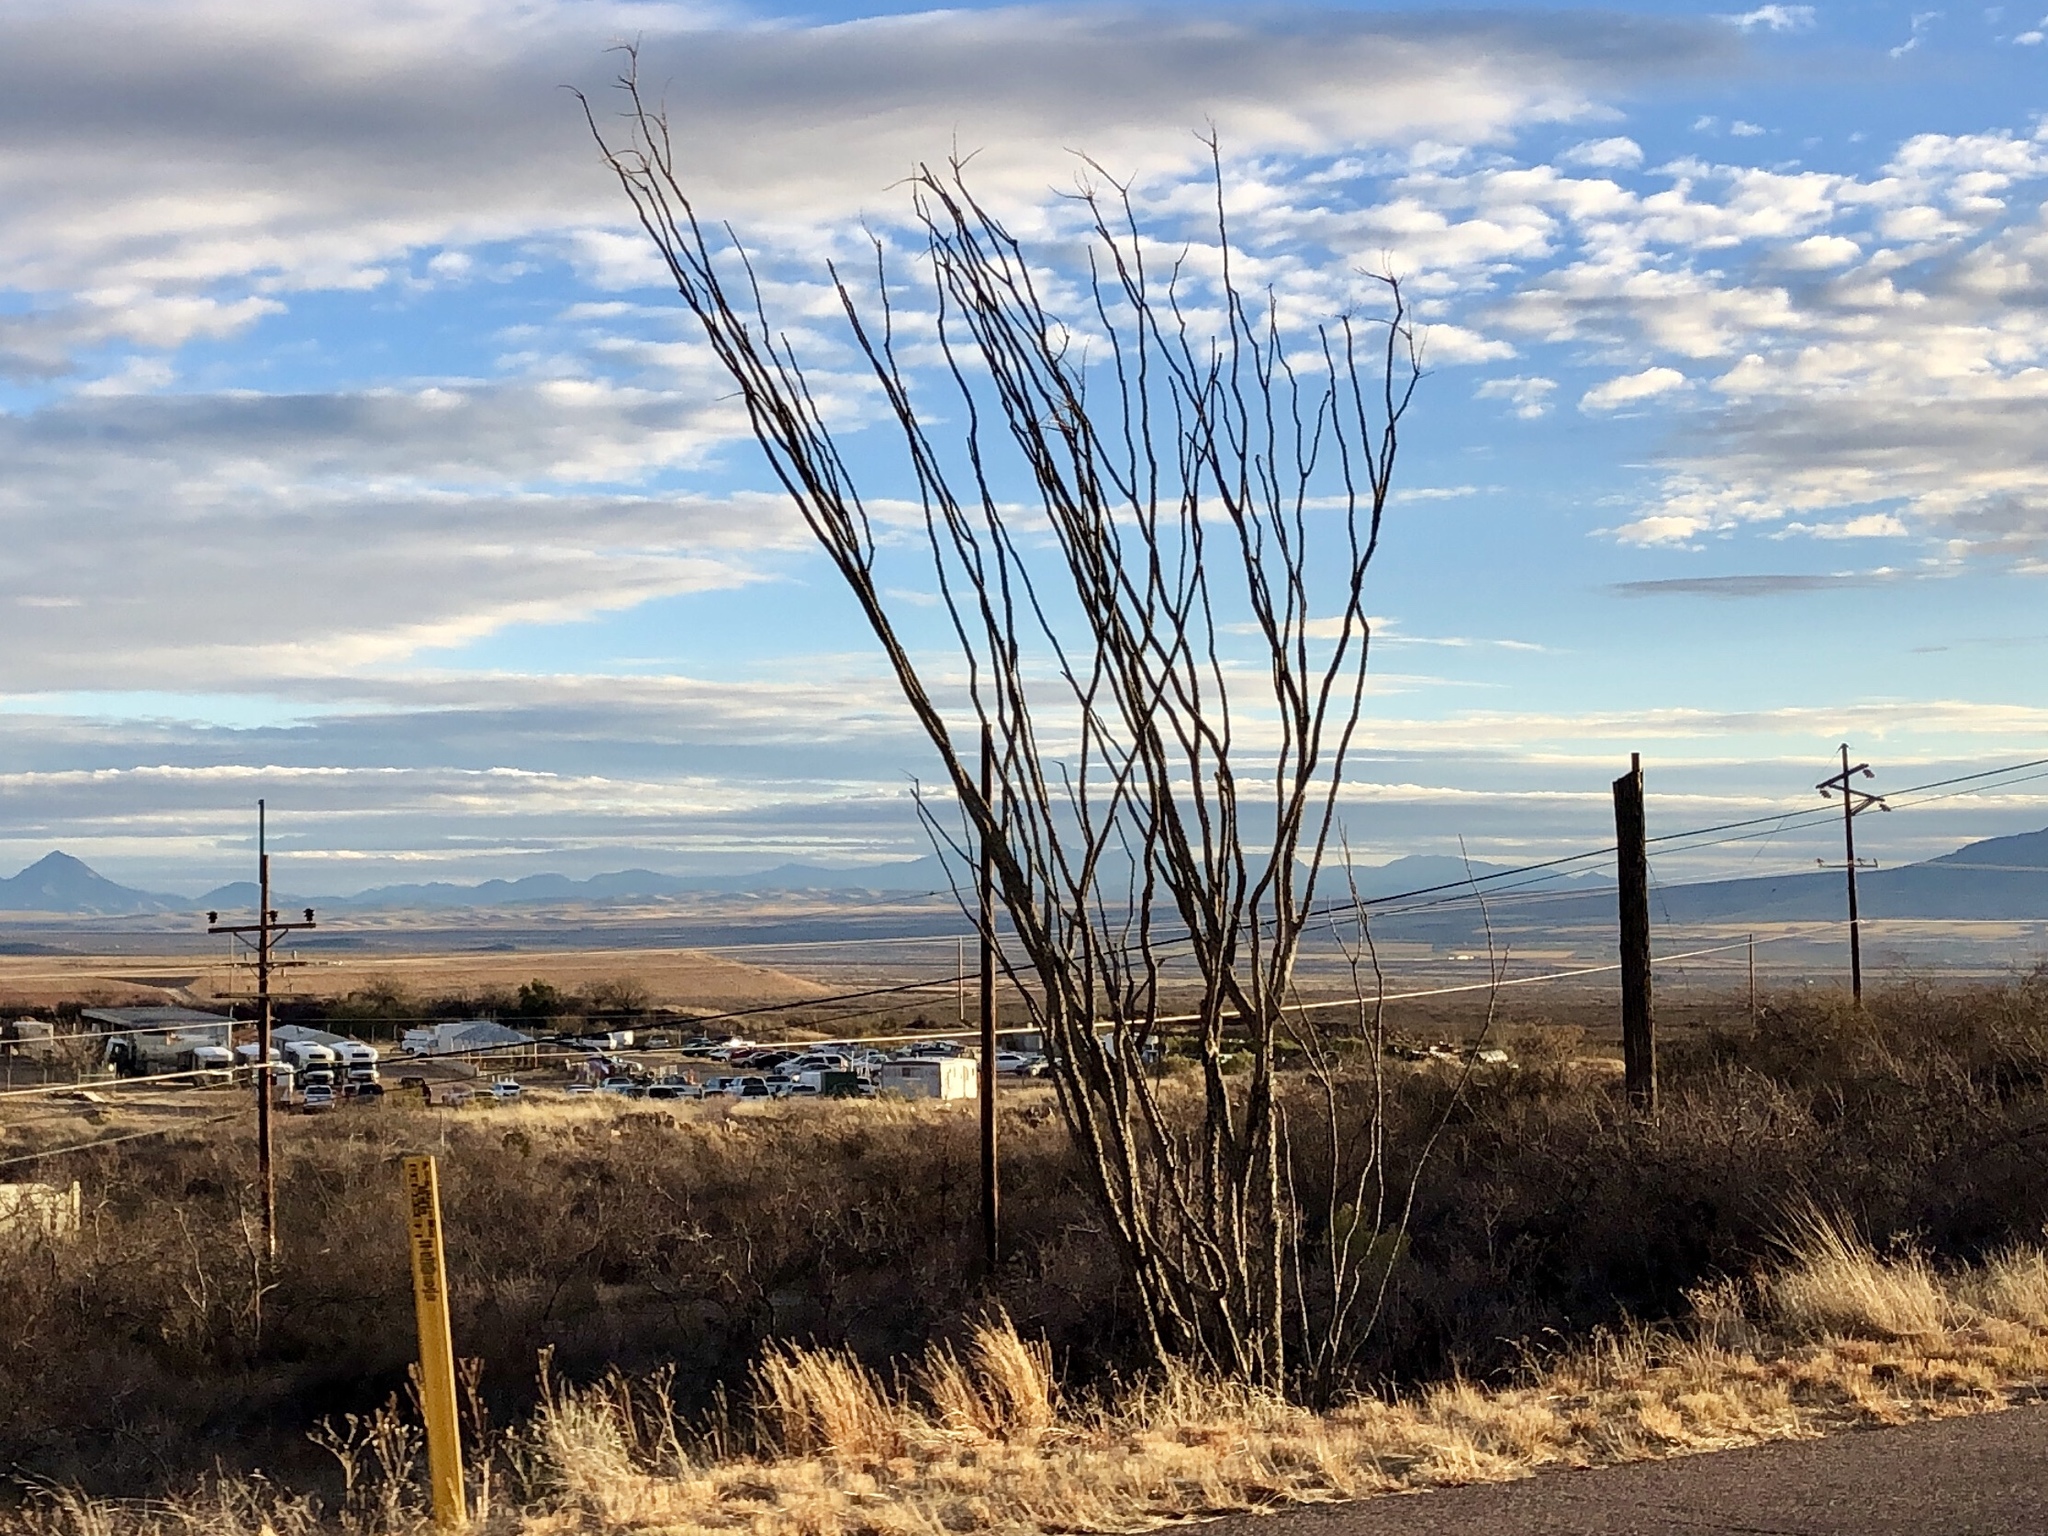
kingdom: Plantae
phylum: Tracheophyta
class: Magnoliopsida
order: Ericales
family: Fouquieriaceae
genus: Fouquieria
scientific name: Fouquieria splendens
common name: Vine-cactus
